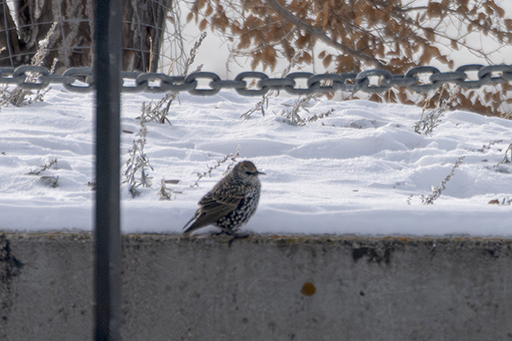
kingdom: Animalia
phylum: Chordata
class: Aves
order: Passeriformes
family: Sturnidae
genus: Sturnus
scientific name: Sturnus vulgaris
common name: Common starling
